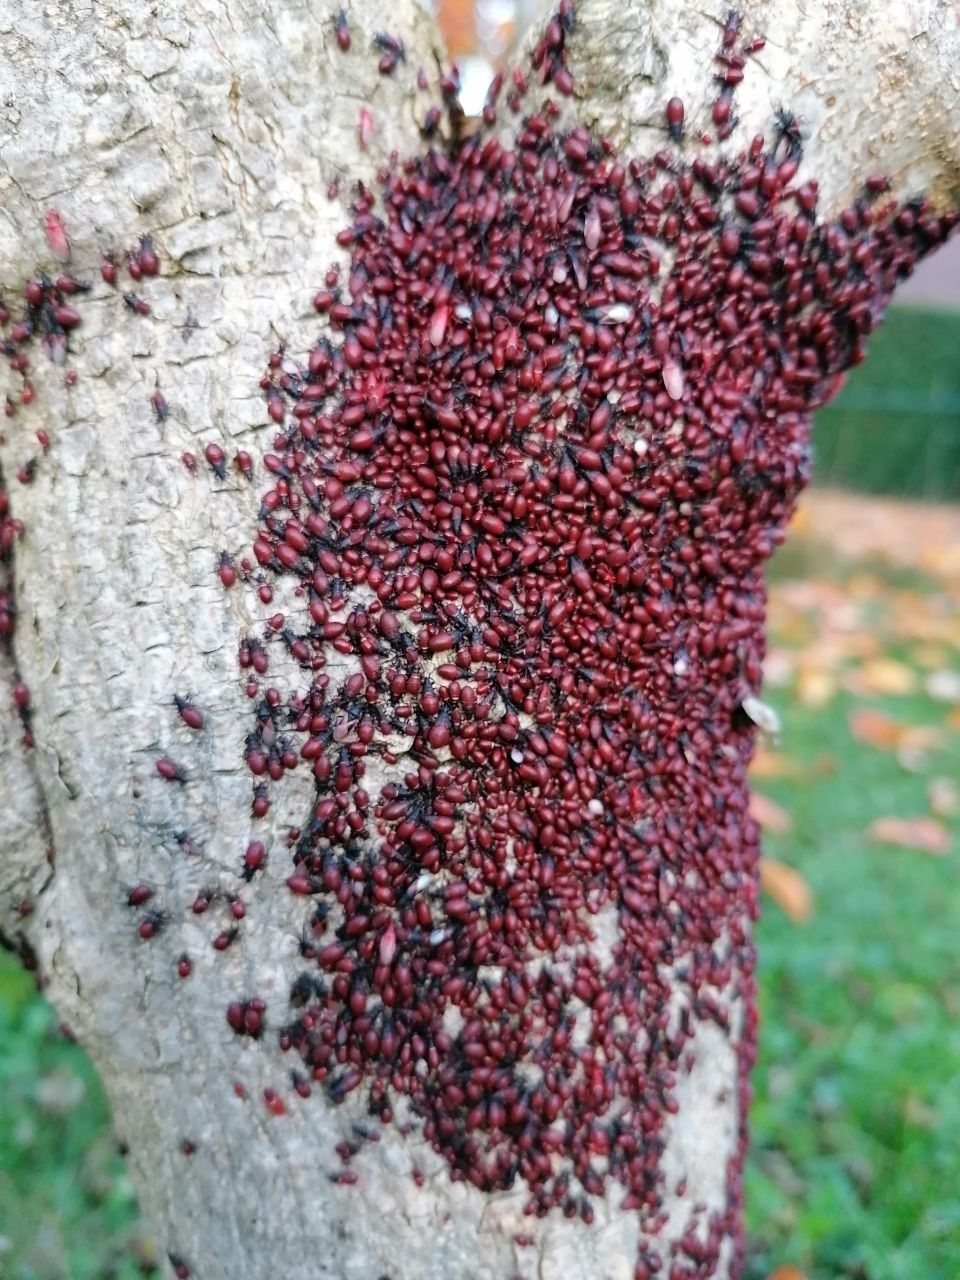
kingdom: Animalia
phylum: Arthropoda
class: Insecta
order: Hemiptera
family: Oxycarenidae
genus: Oxycarenus
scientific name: Oxycarenus lavaterae
